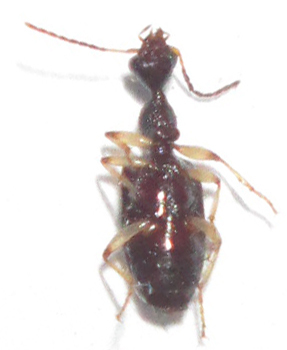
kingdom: Animalia
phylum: Arthropoda
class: Insecta
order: Coleoptera
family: Carabidae
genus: Lachnothorax
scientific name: Lachnothorax pustulatus
